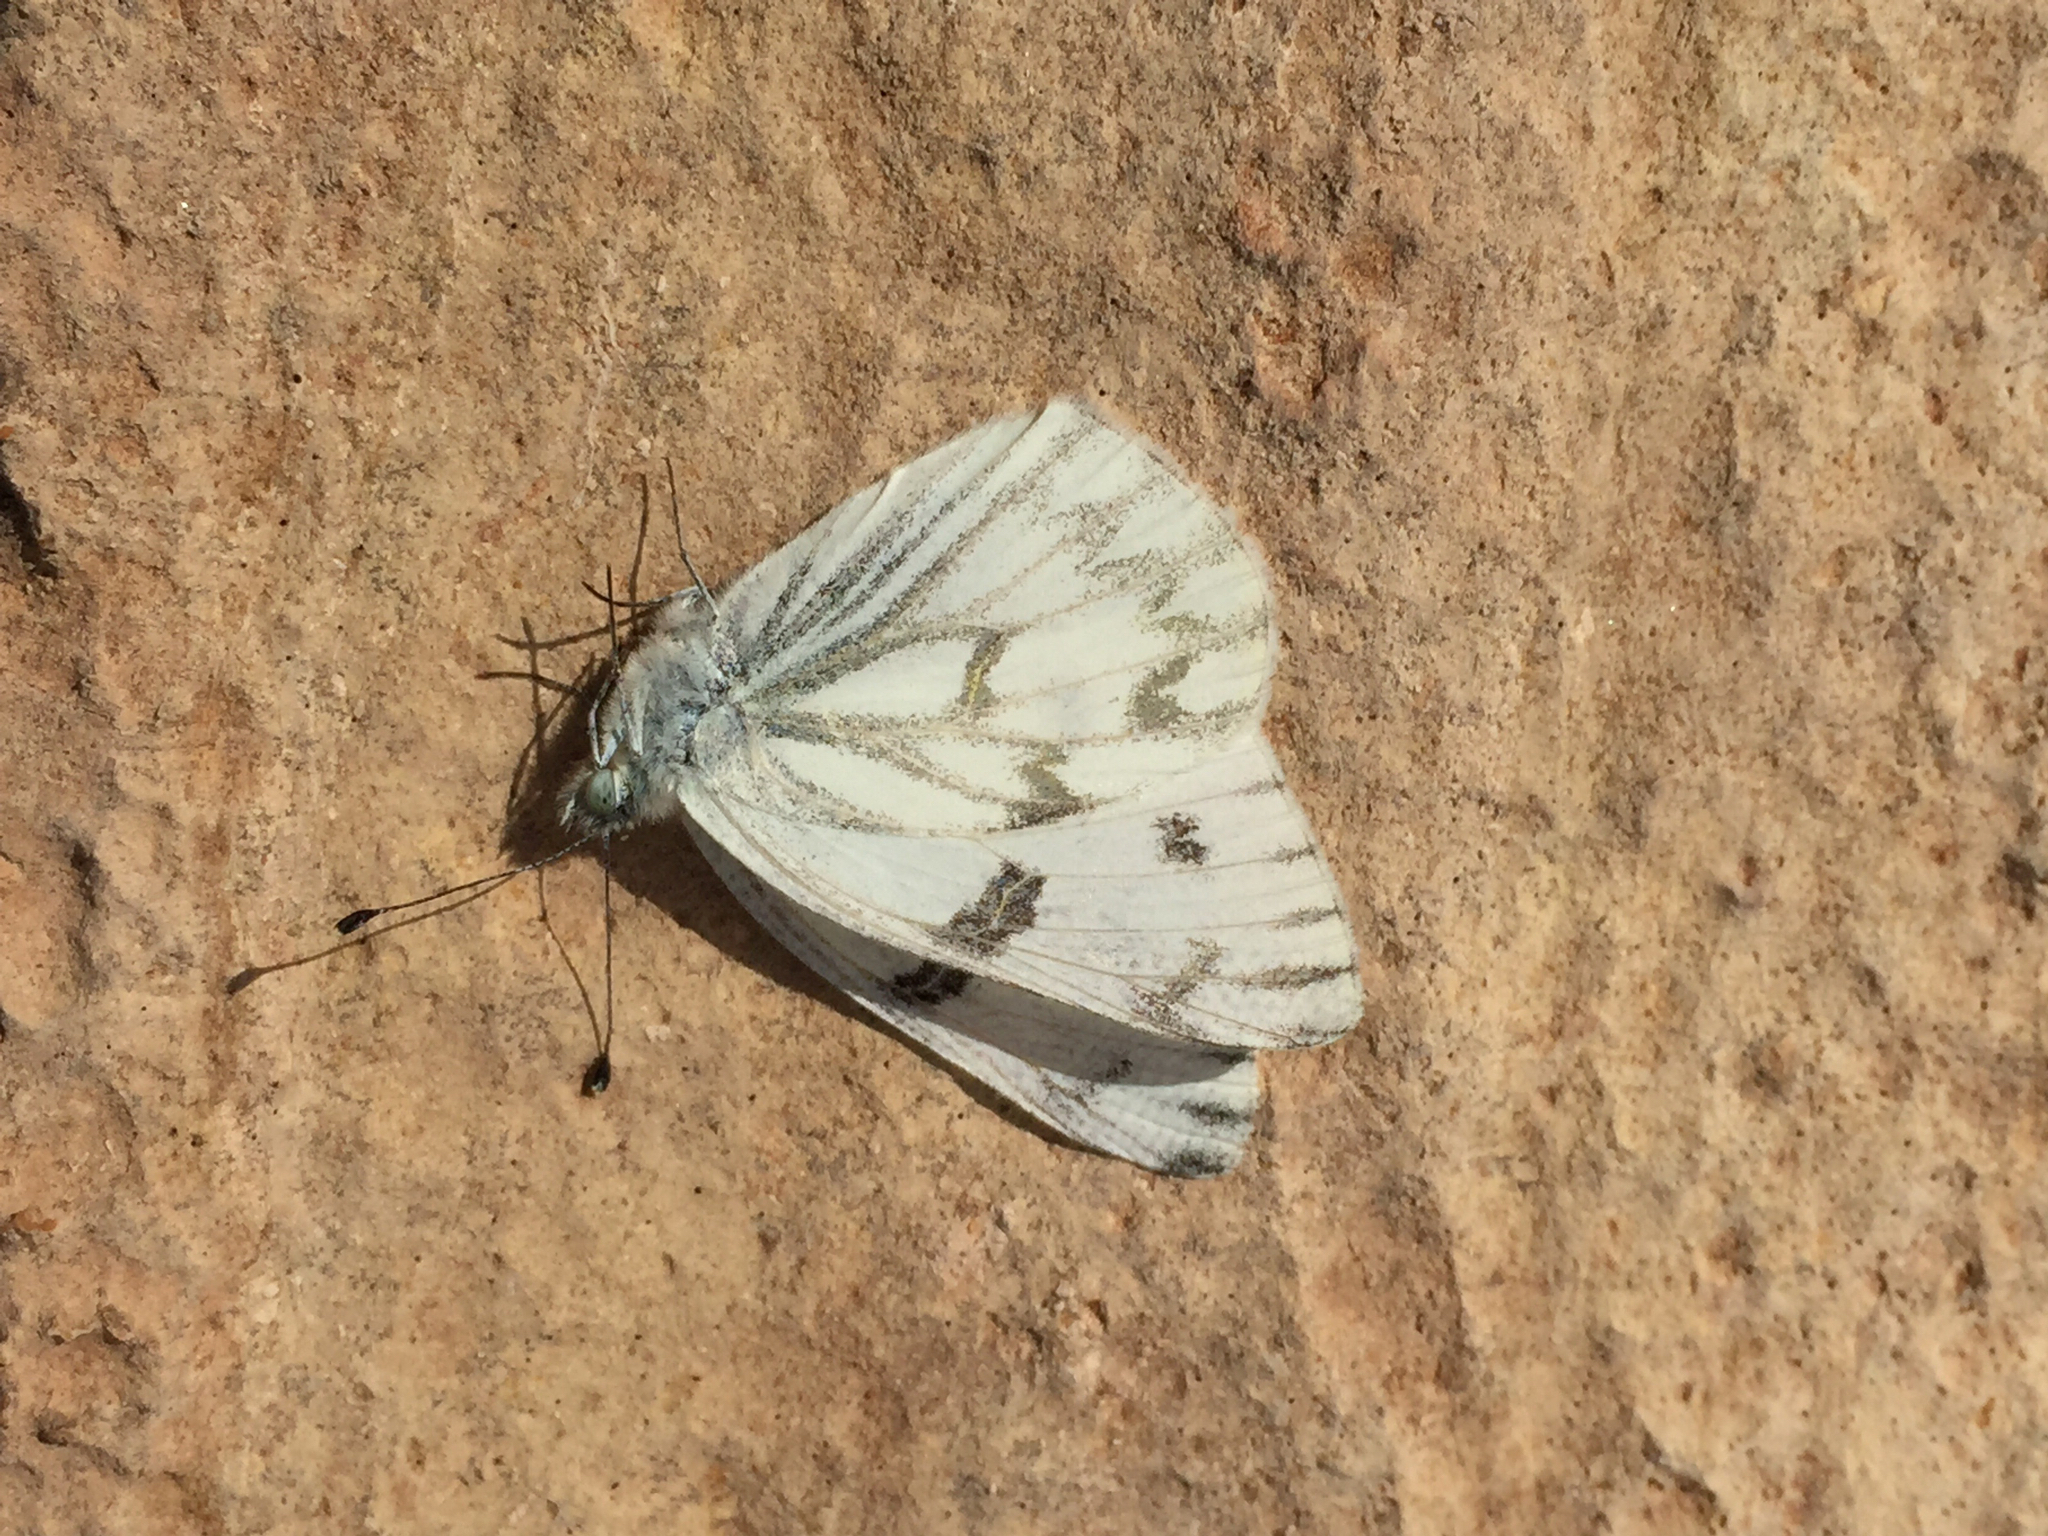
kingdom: Animalia
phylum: Arthropoda
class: Insecta
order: Lepidoptera
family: Pieridae
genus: Pontia
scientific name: Pontia protodice
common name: Checkered white
